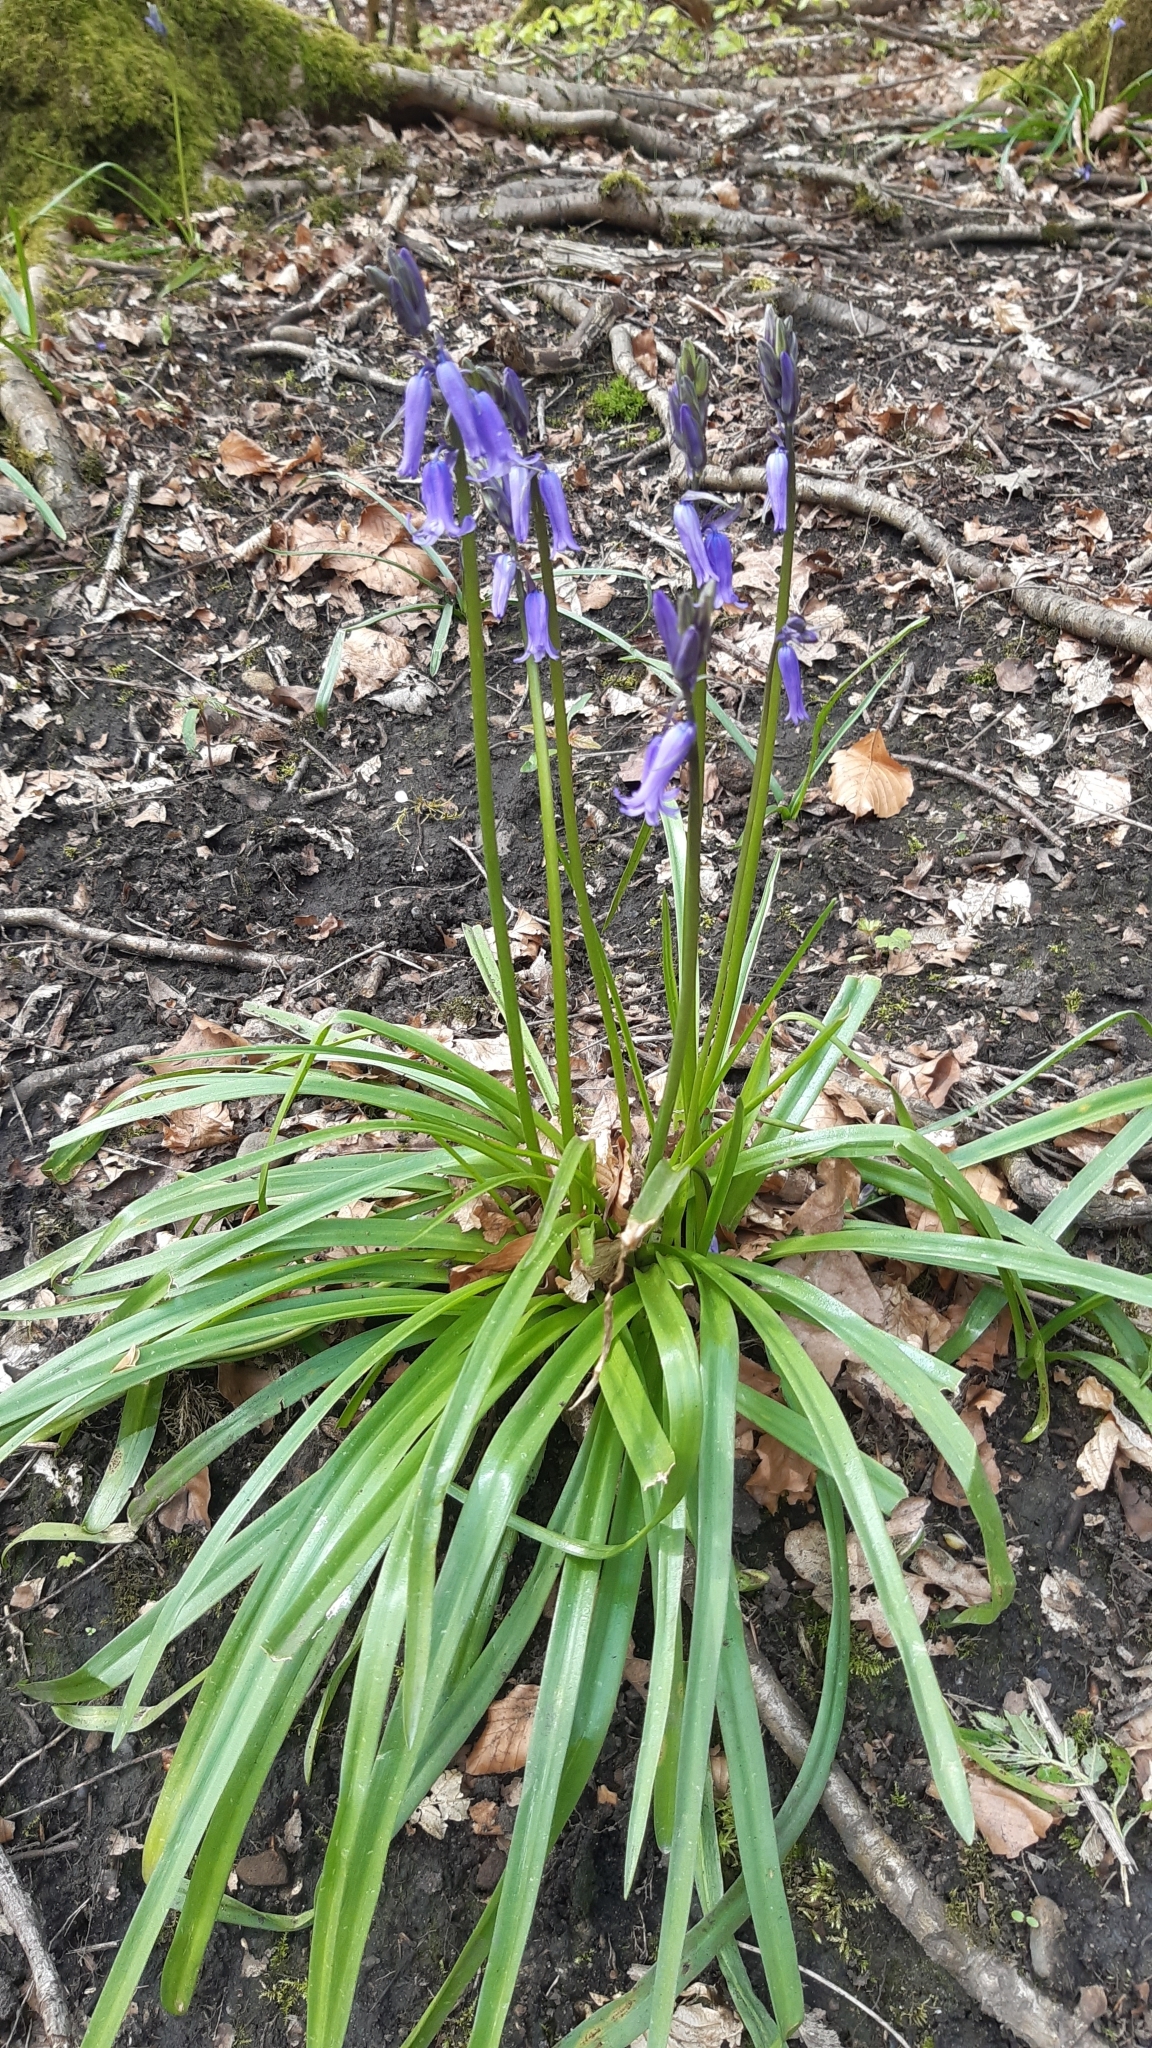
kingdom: Plantae
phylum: Tracheophyta
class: Liliopsida
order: Asparagales
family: Asparagaceae
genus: Hyacinthoides
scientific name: Hyacinthoides non-scripta
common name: Bluebell
